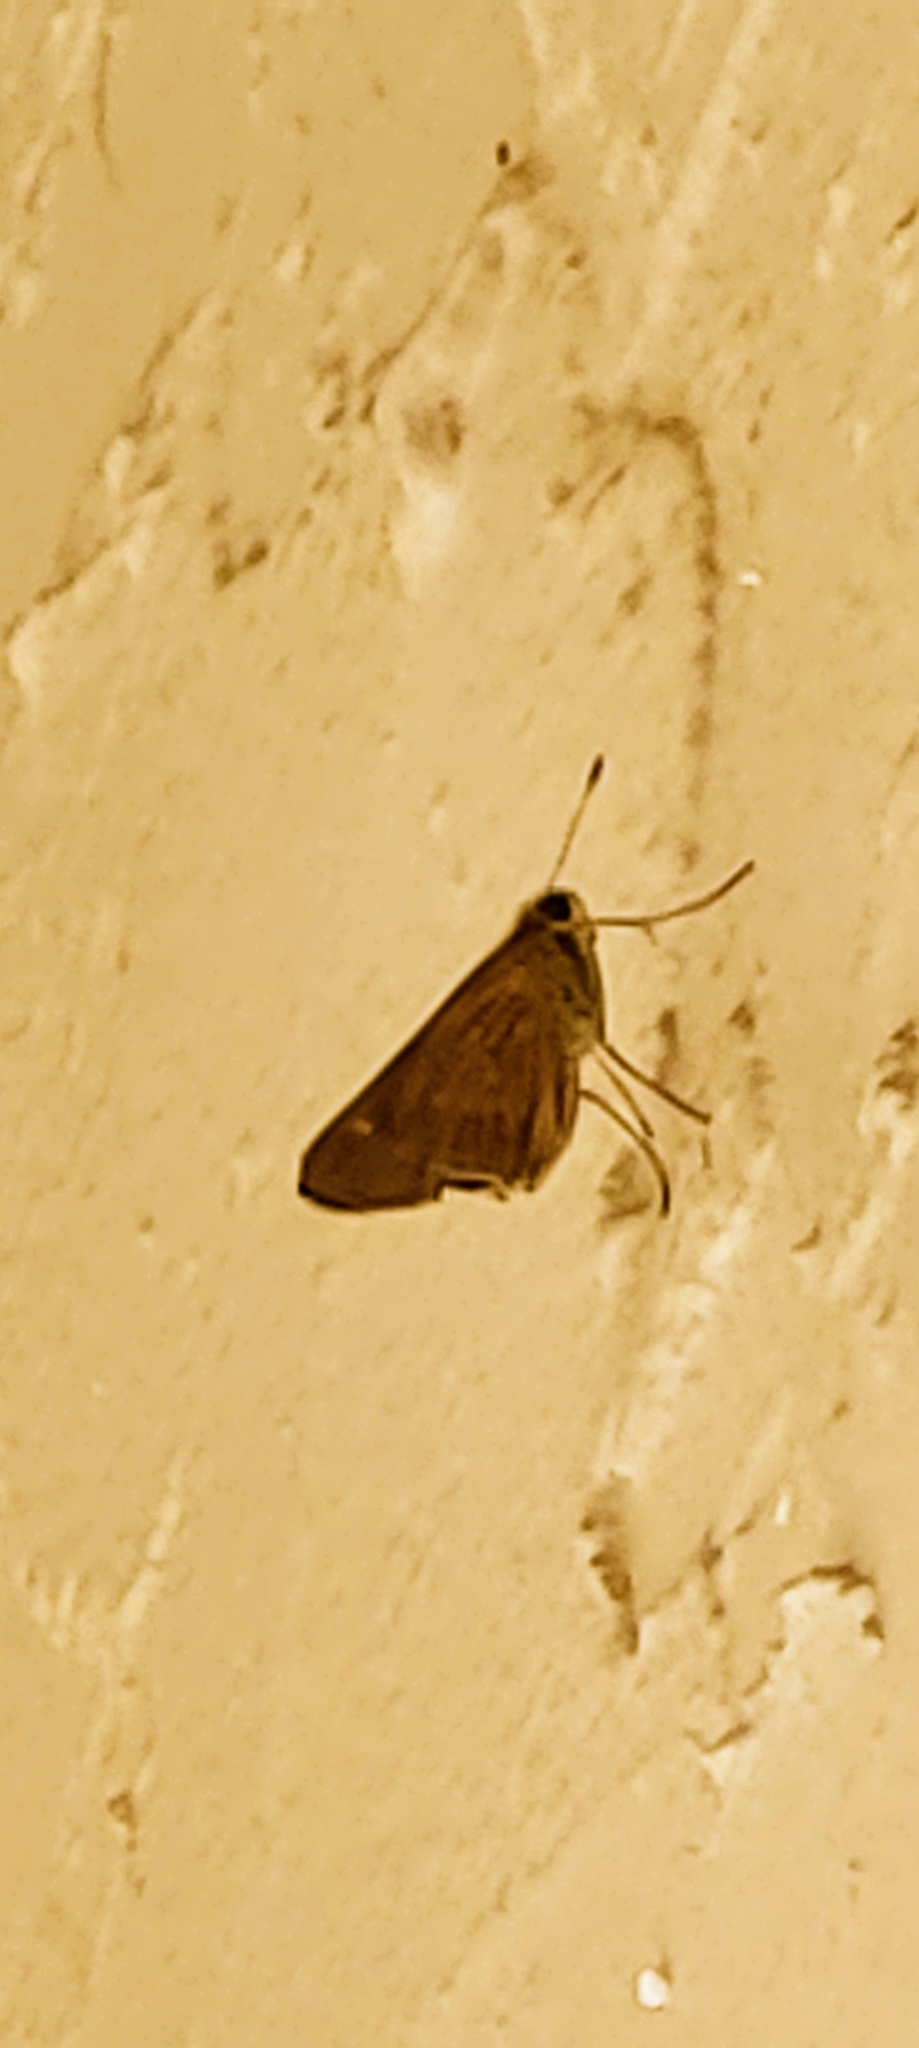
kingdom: Animalia
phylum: Arthropoda
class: Insecta
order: Lepidoptera
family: Hesperiidae
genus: Panoquina
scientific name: Panoquina ocola
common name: Ocola skipper
